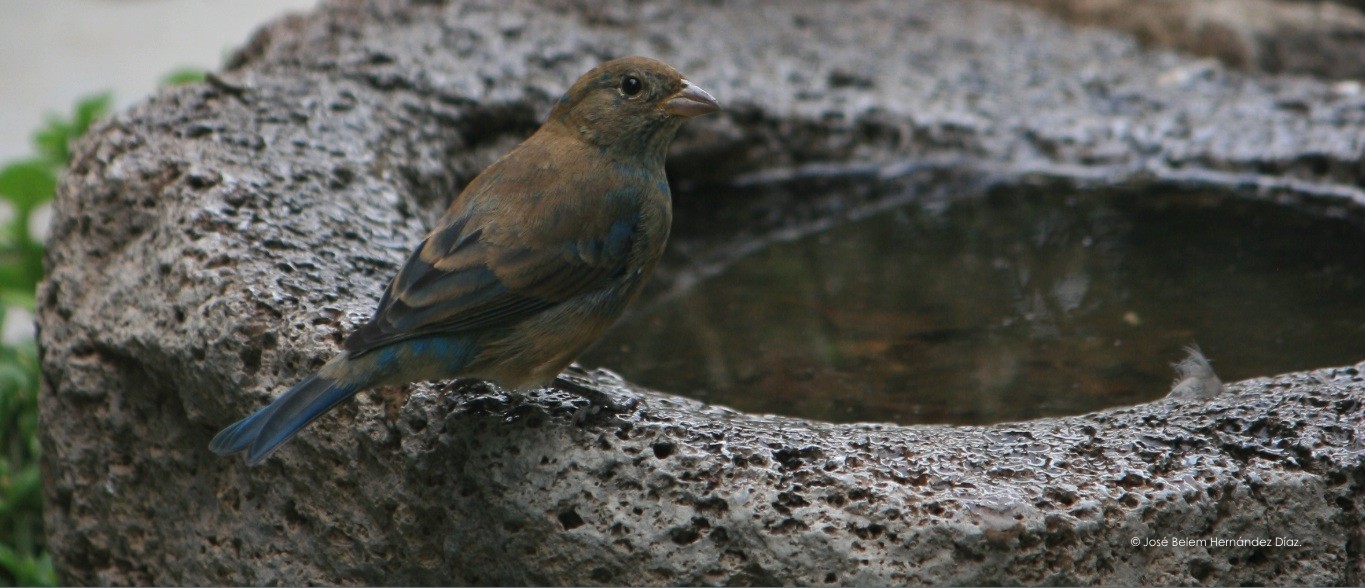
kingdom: Animalia
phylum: Chordata
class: Aves
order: Passeriformes
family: Cardinalidae
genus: Passerina
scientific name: Passerina cyanea
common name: Indigo bunting
